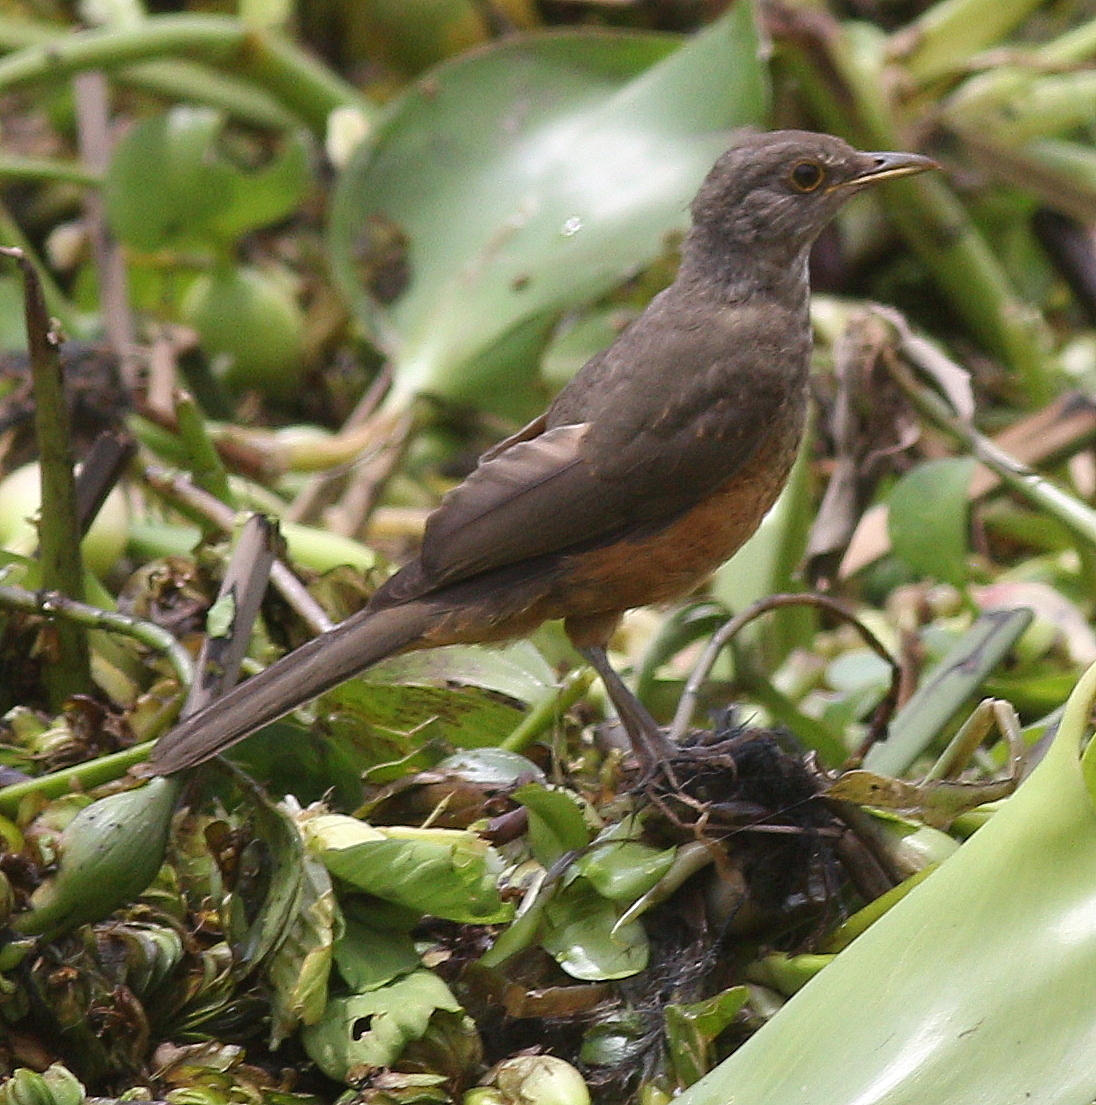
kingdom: Animalia
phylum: Chordata
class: Aves
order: Passeriformes
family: Turdidae
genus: Turdus
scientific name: Turdus rufiventris
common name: Rufous-bellied thrush
